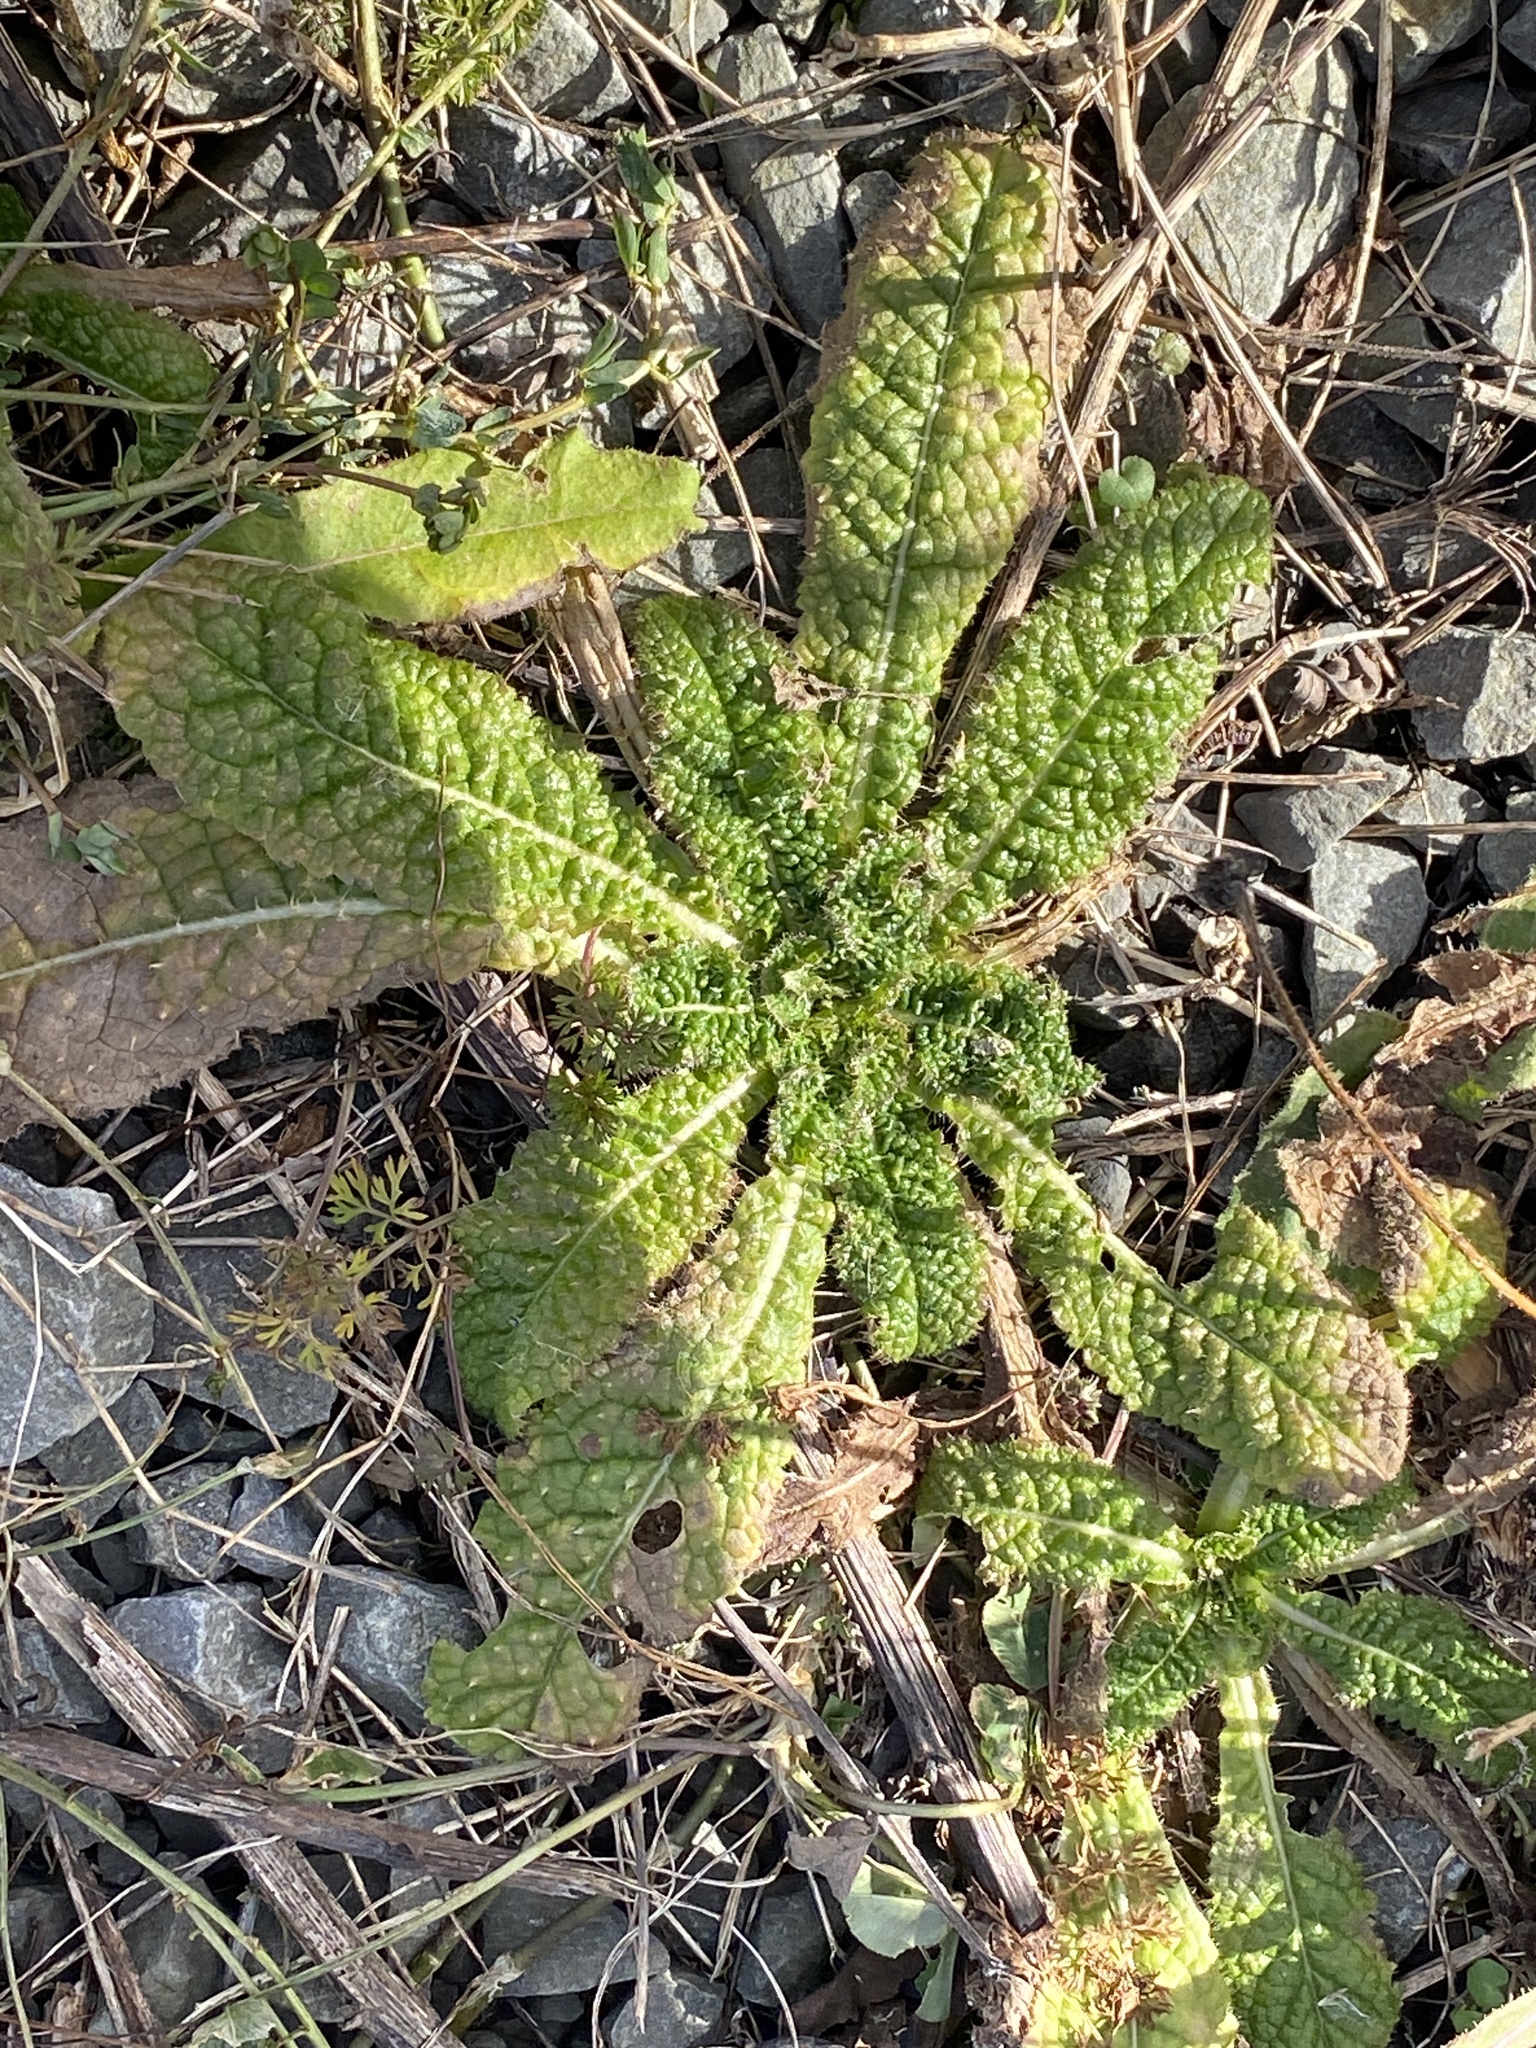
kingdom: Plantae
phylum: Tracheophyta
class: Magnoliopsida
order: Dipsacales
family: Caprifoliaceae
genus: Dipsacus
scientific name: Dipsacus fullonum
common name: Teasel
